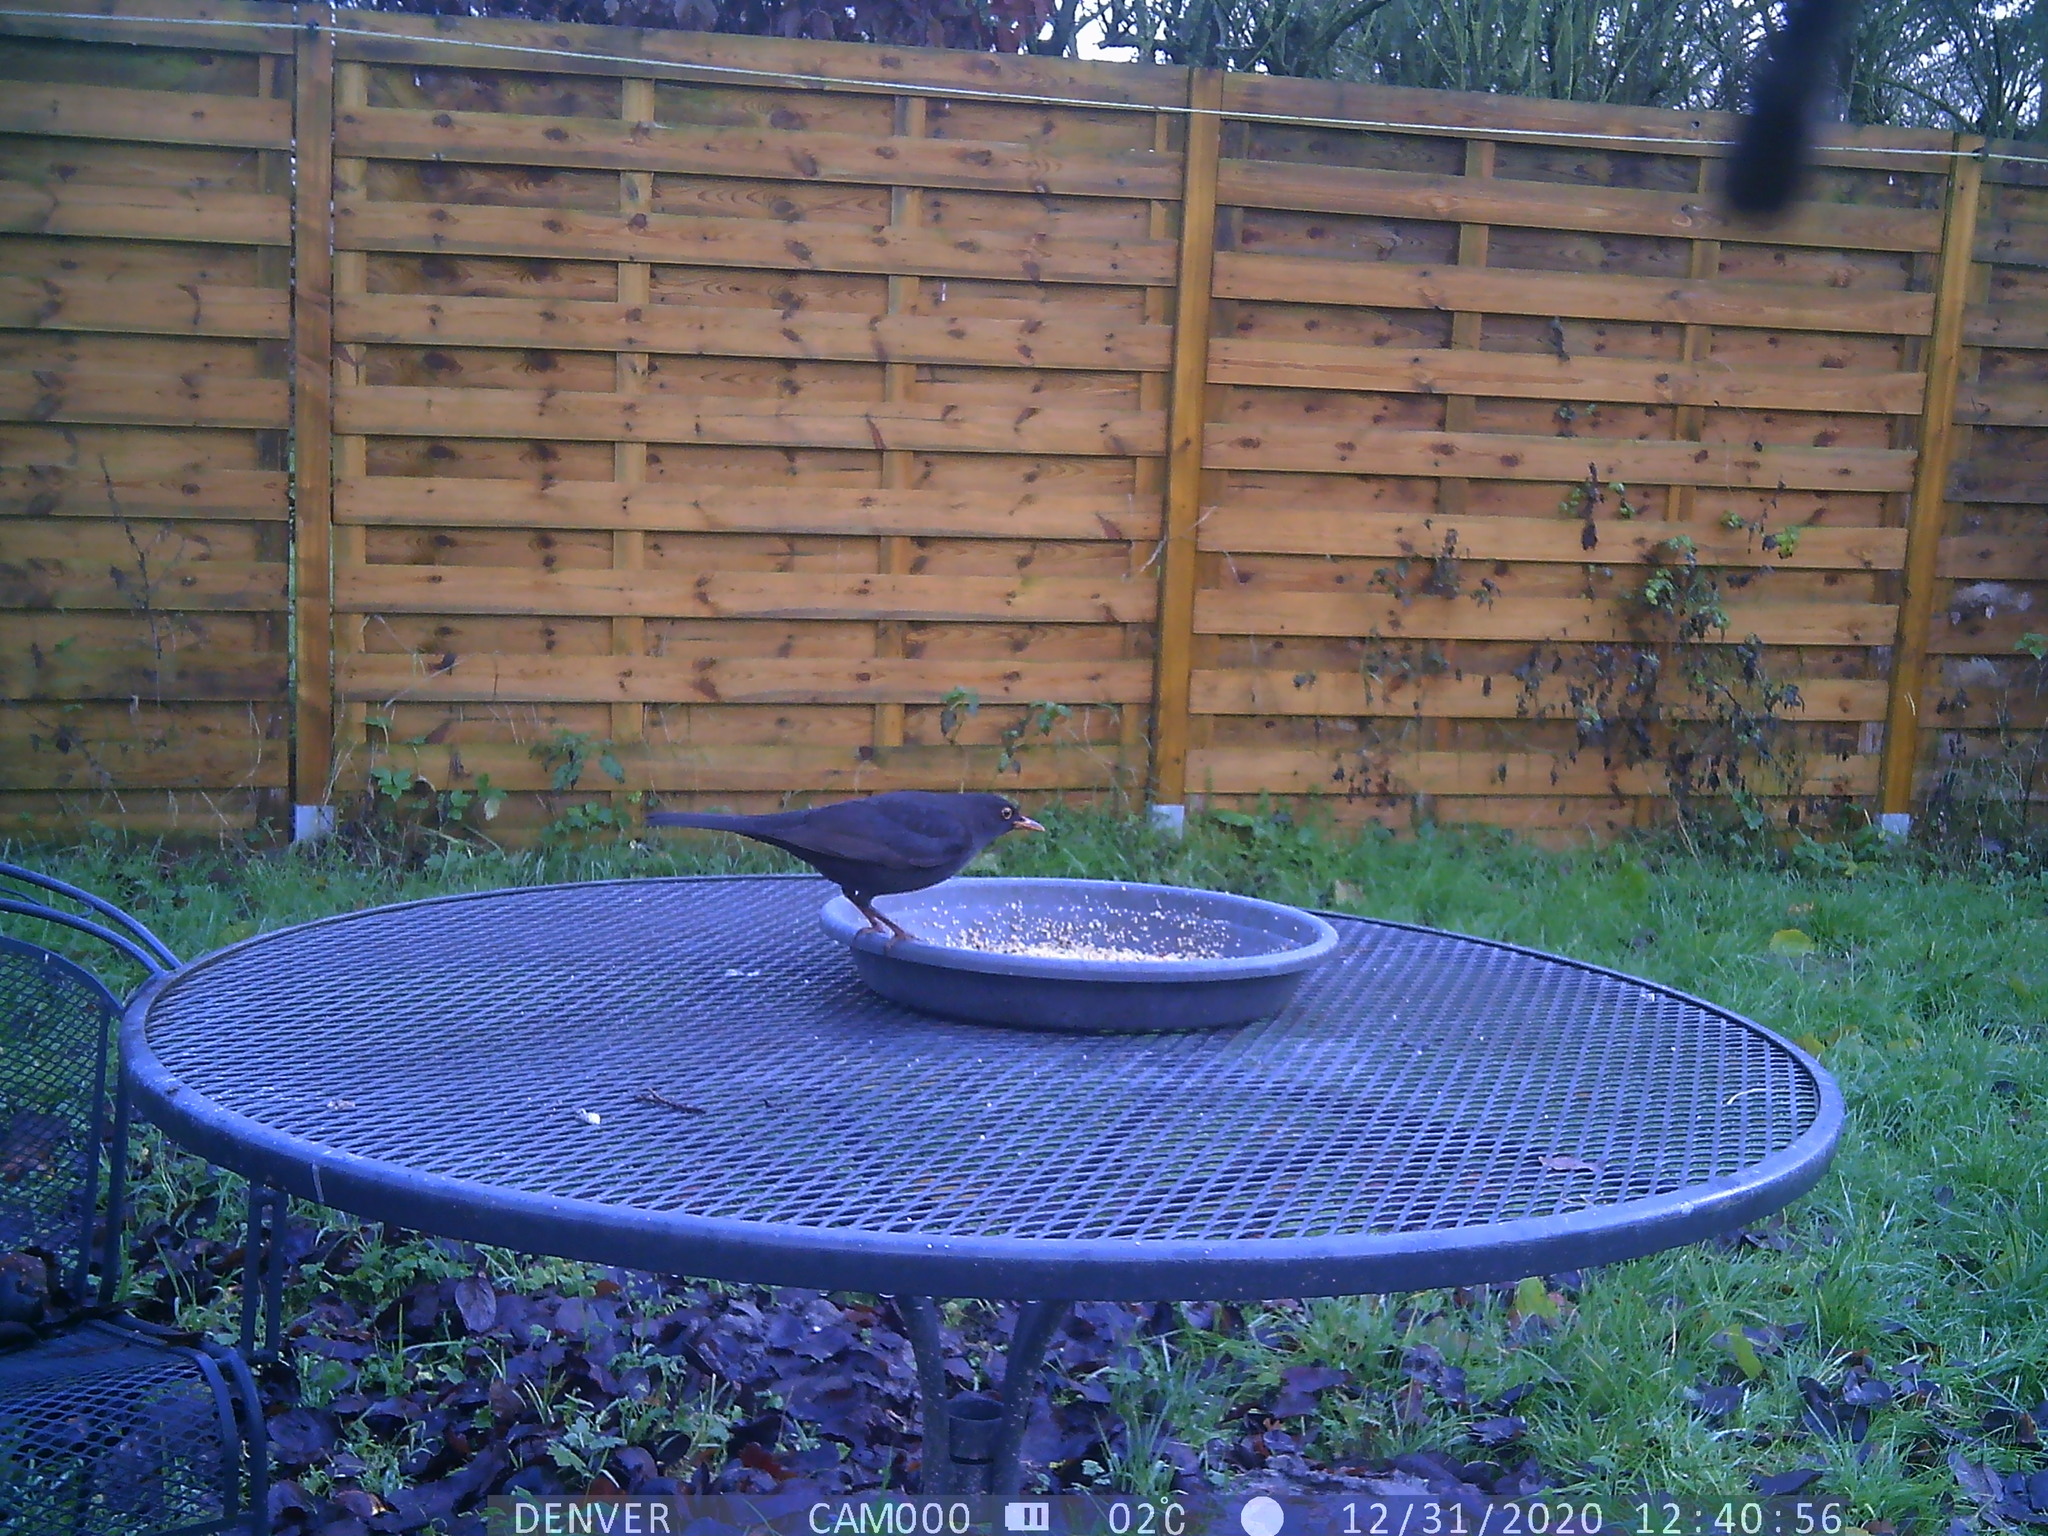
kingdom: Animalia
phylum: Chordata
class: Aves
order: Passeriformes
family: Turdidae
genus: Turdus
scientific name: Turdus merula
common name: Common blackbird
